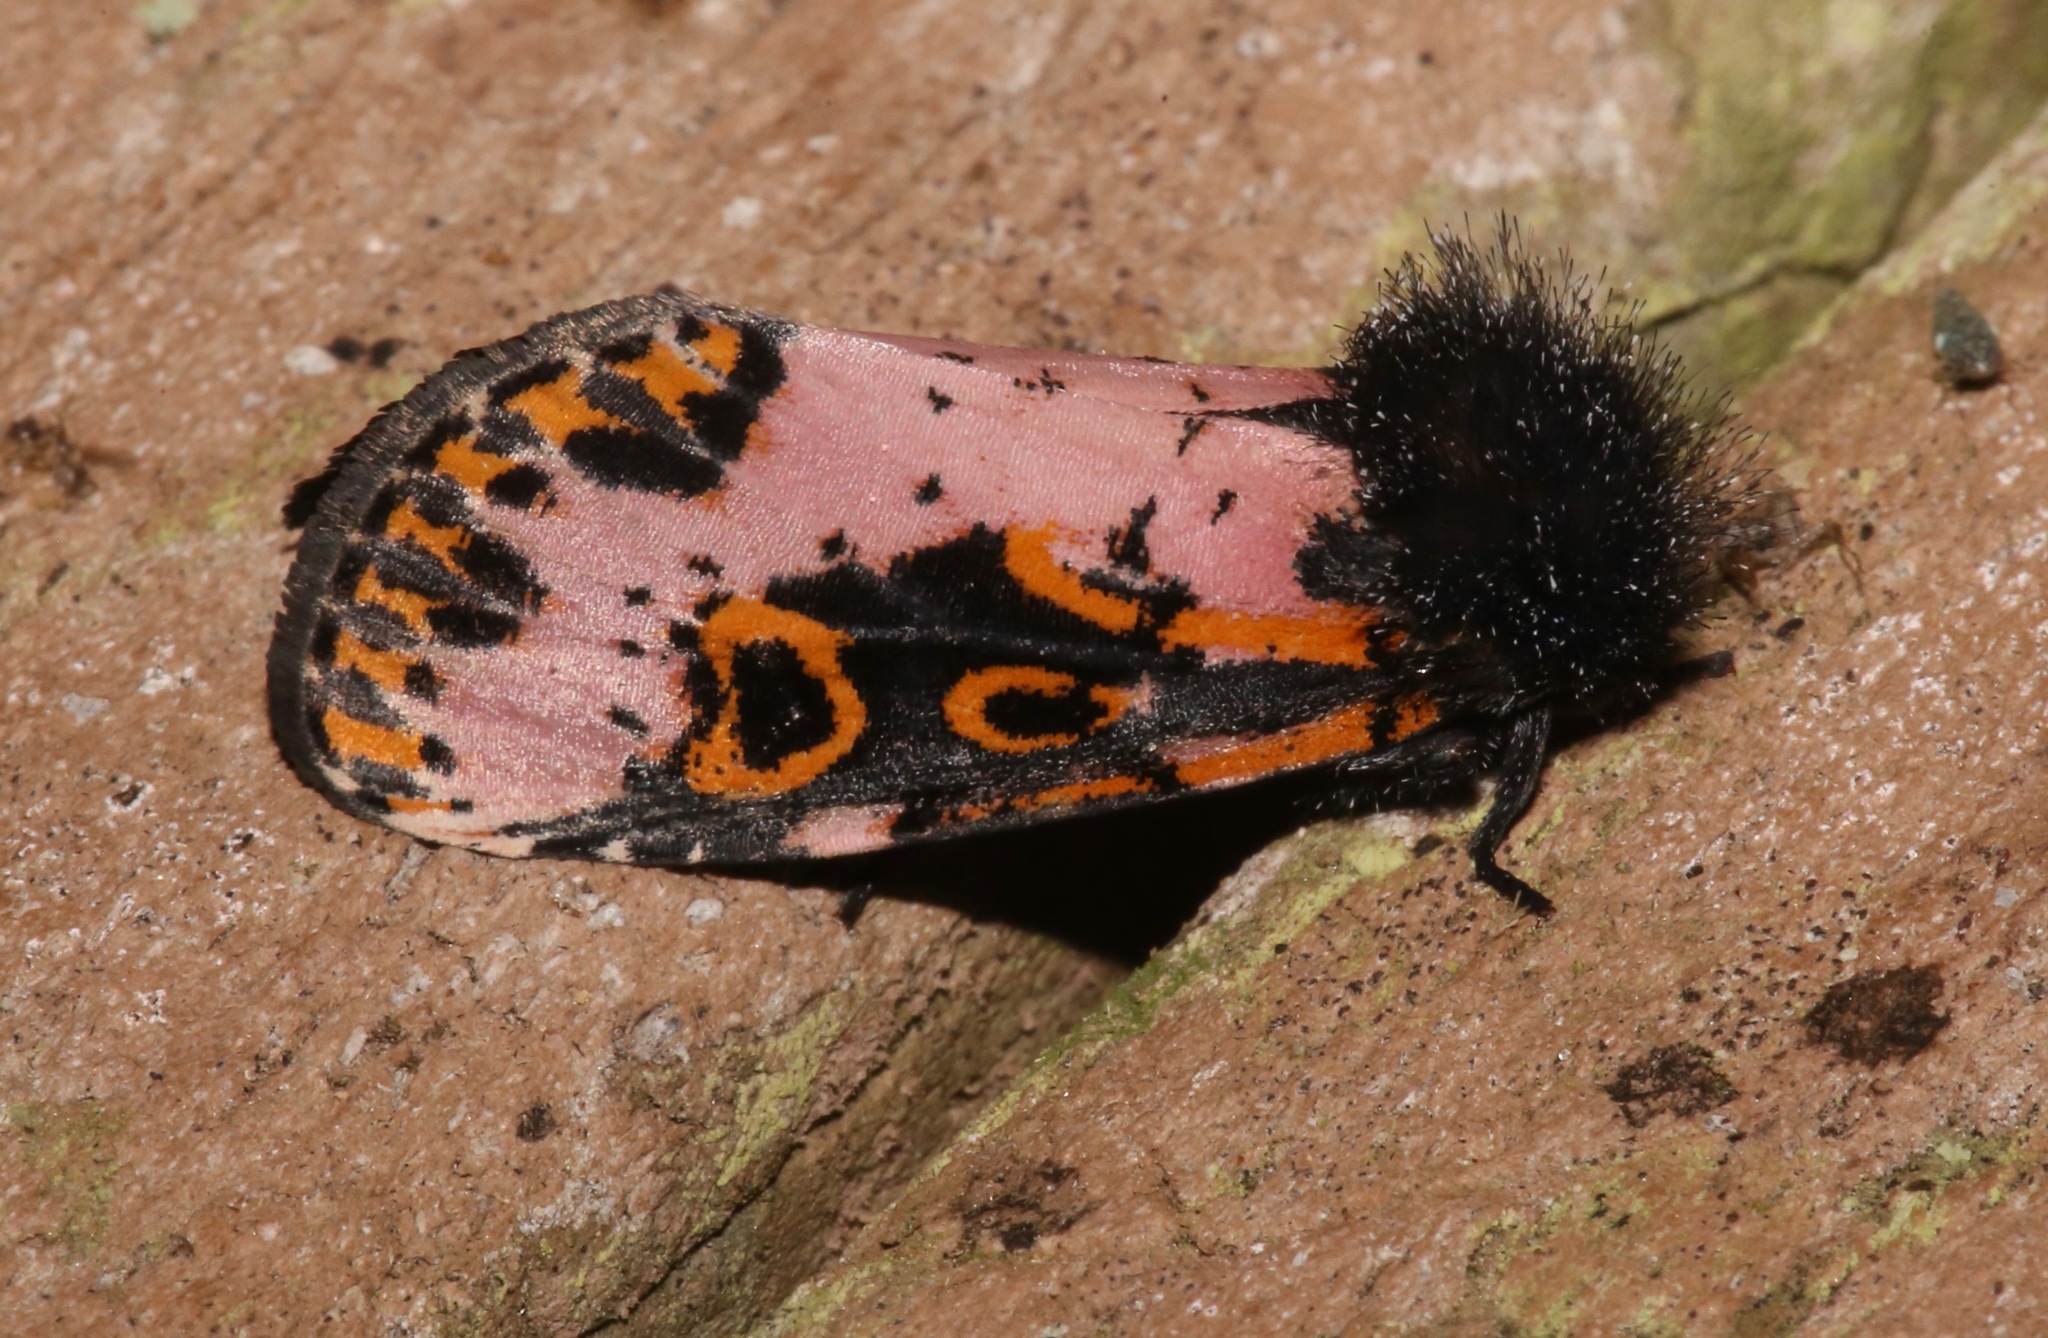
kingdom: Animalia
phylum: Arthropoda
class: Insecta
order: Lepidoptera
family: Noctuidae
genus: Xanthopastis
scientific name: Xanthopastis regnatrix
